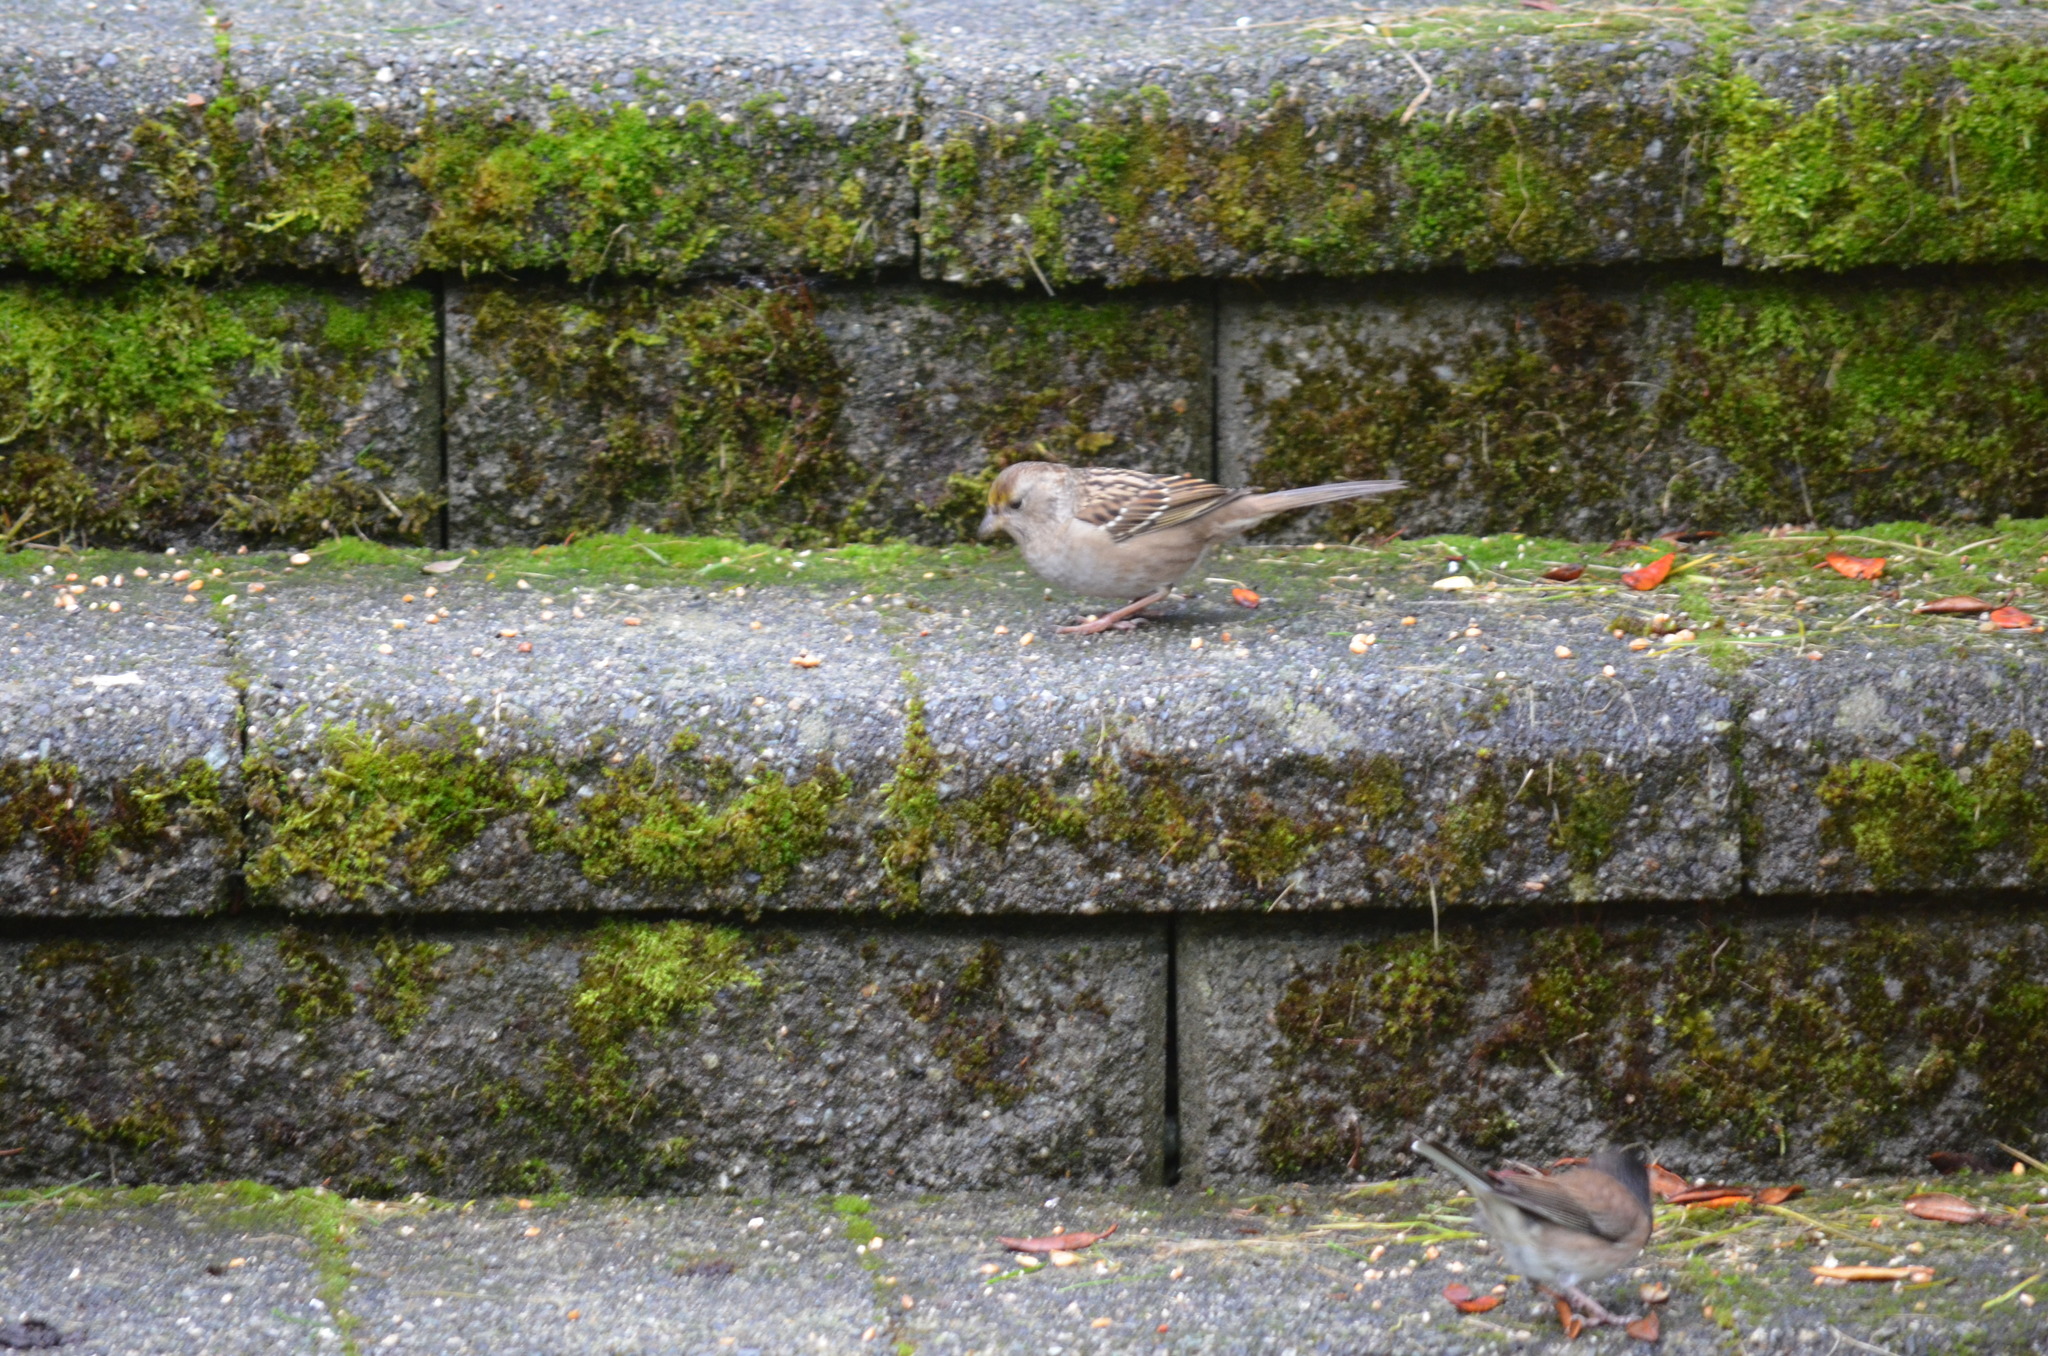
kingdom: Animalia
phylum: Chordata
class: Aves
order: Passeriformes
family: Passerellidae
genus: Zonotrichia
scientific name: Zonotrichia atricapilla
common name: Golden-crowned sparrow
